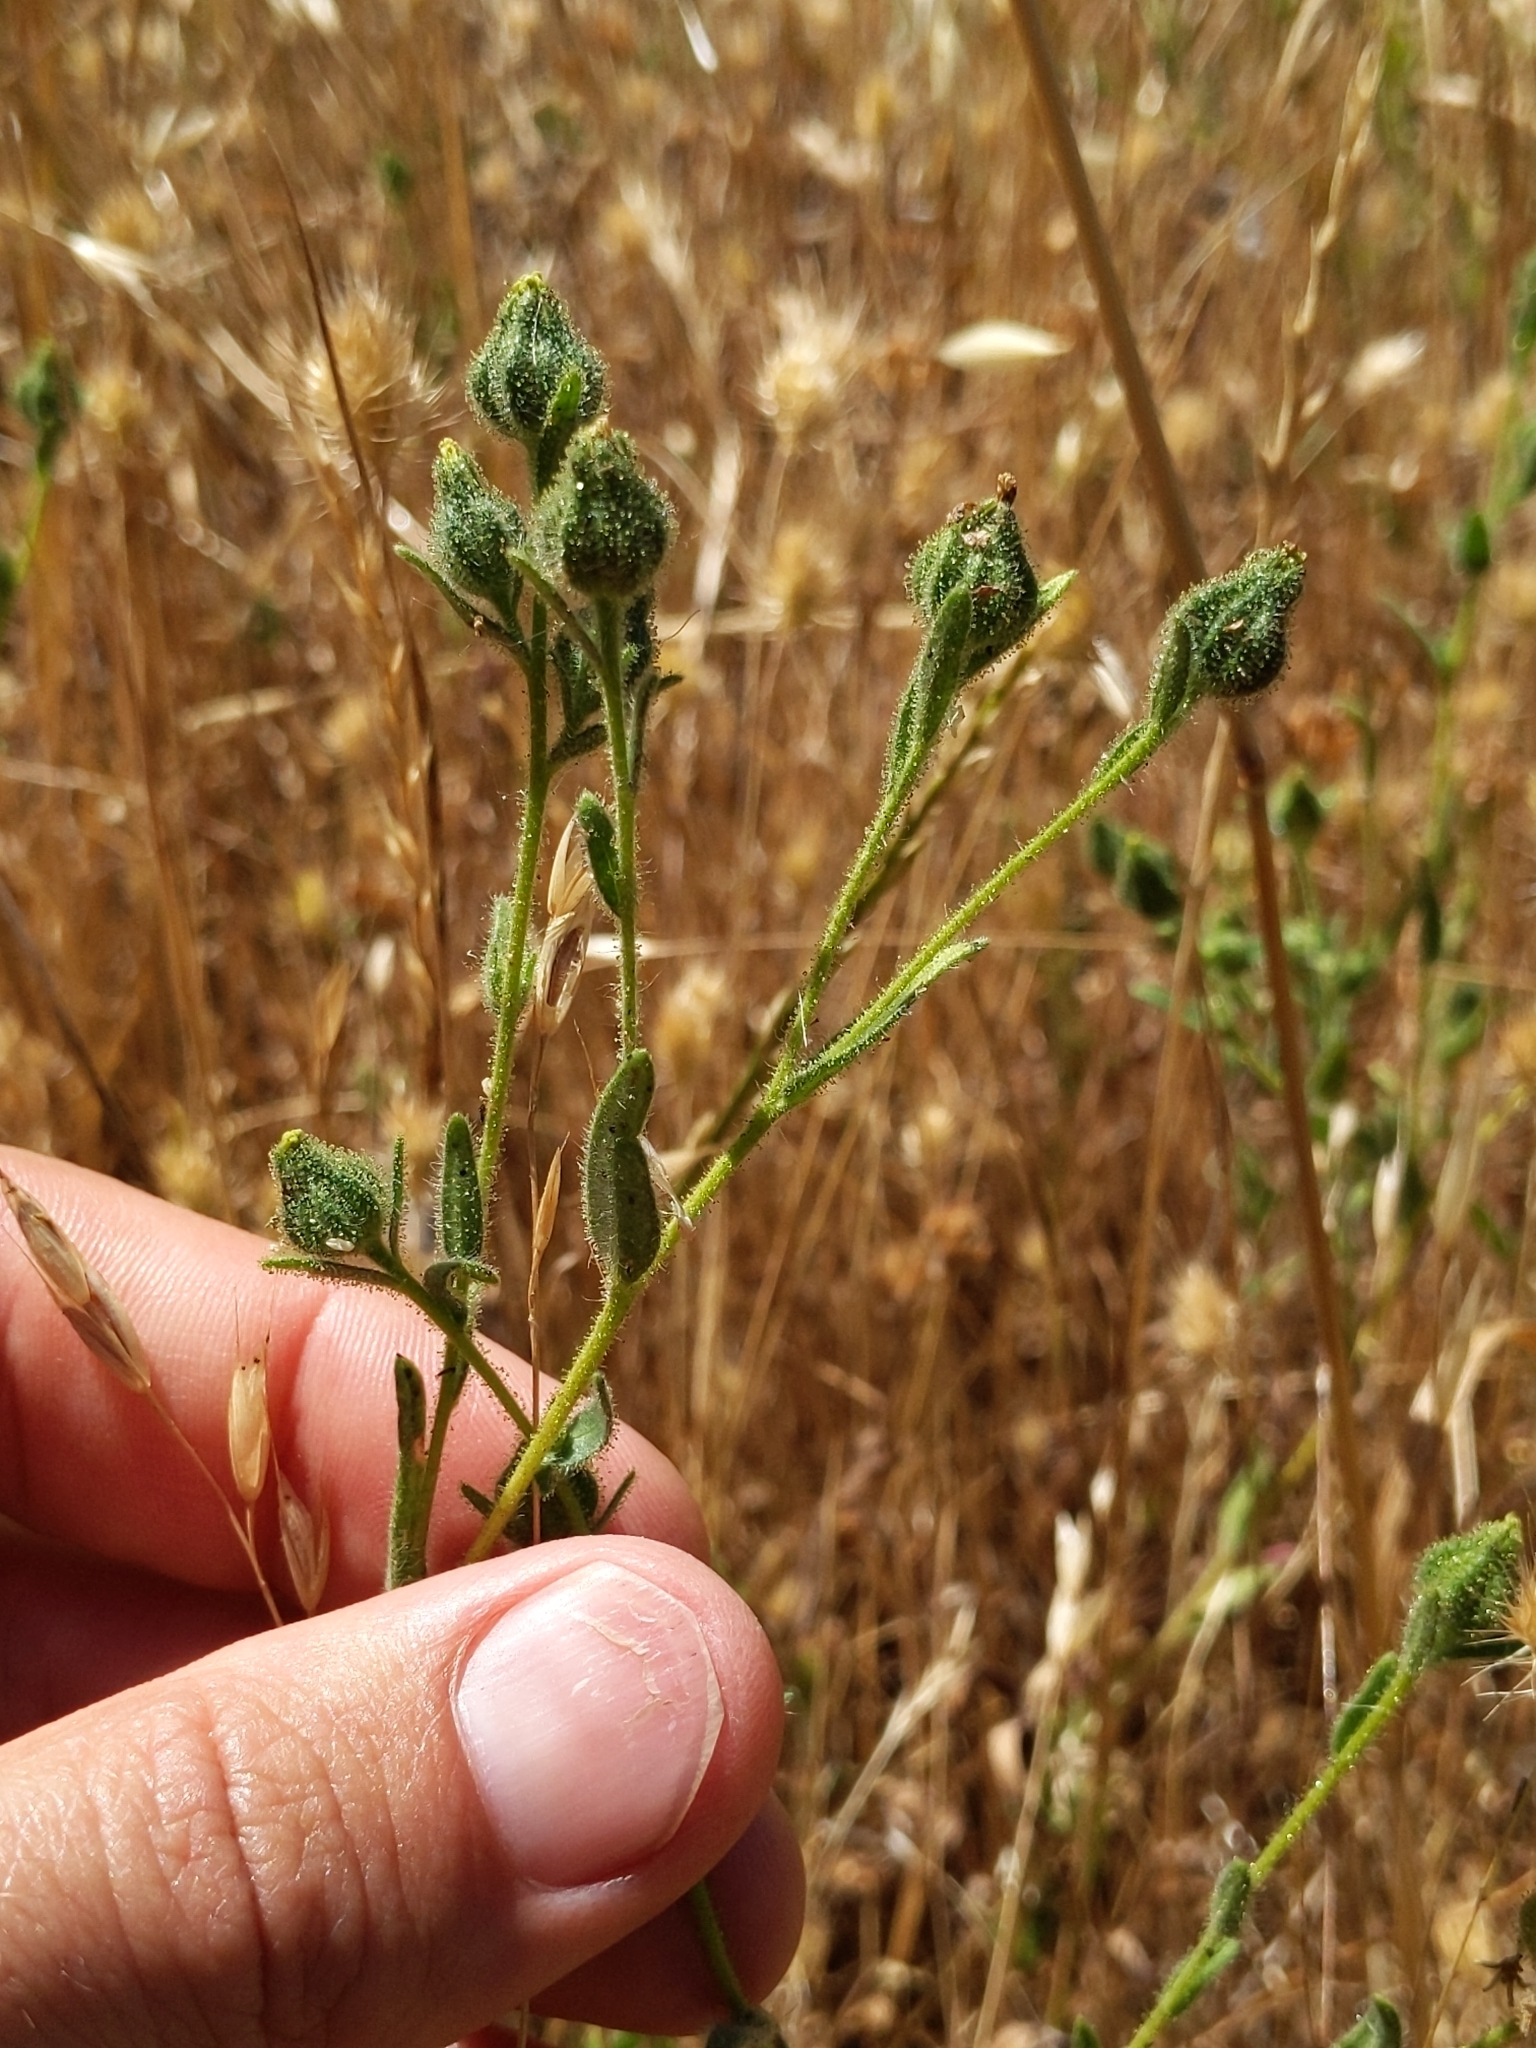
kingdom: Plantae
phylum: Tracheophyta
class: Magnoliopsida
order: Asterales
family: Asteraceae
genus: Madia
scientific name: Madia gracilis
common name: Grassy tarweed
